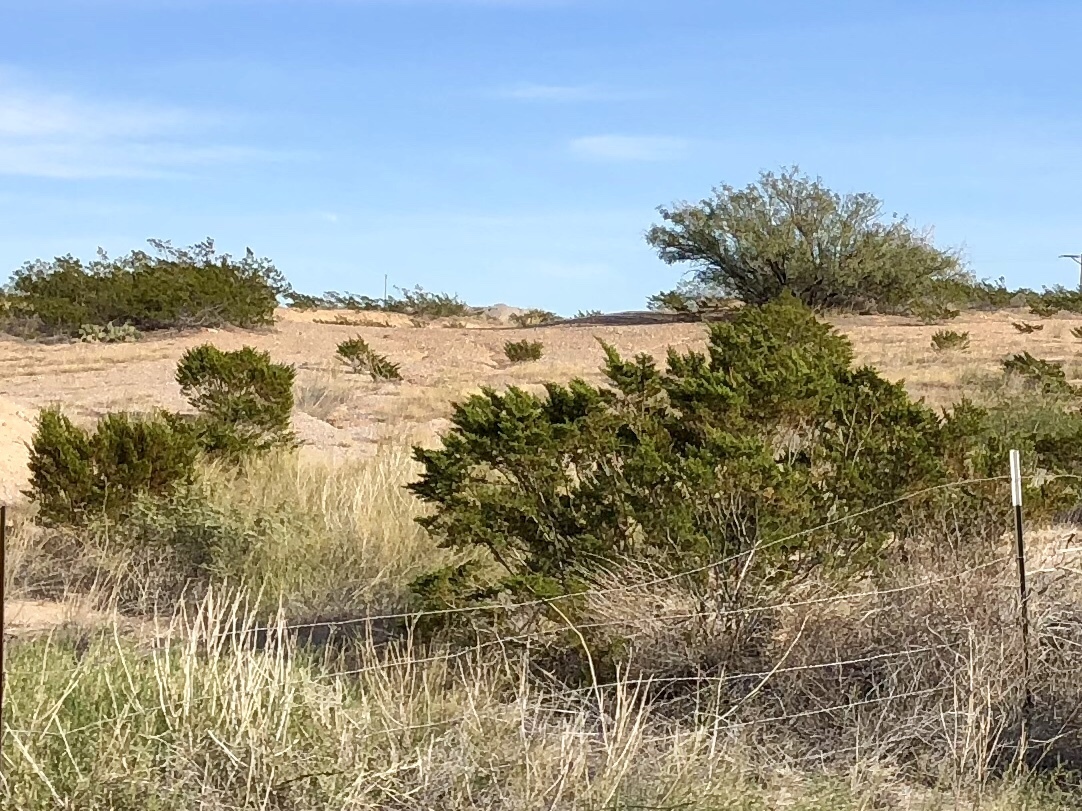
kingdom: Plantae
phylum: Tracheophyta
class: Magnoliopsida
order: Zygophyllales
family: Zygophyllaceae
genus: Larrea
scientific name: Larrea tridentata
